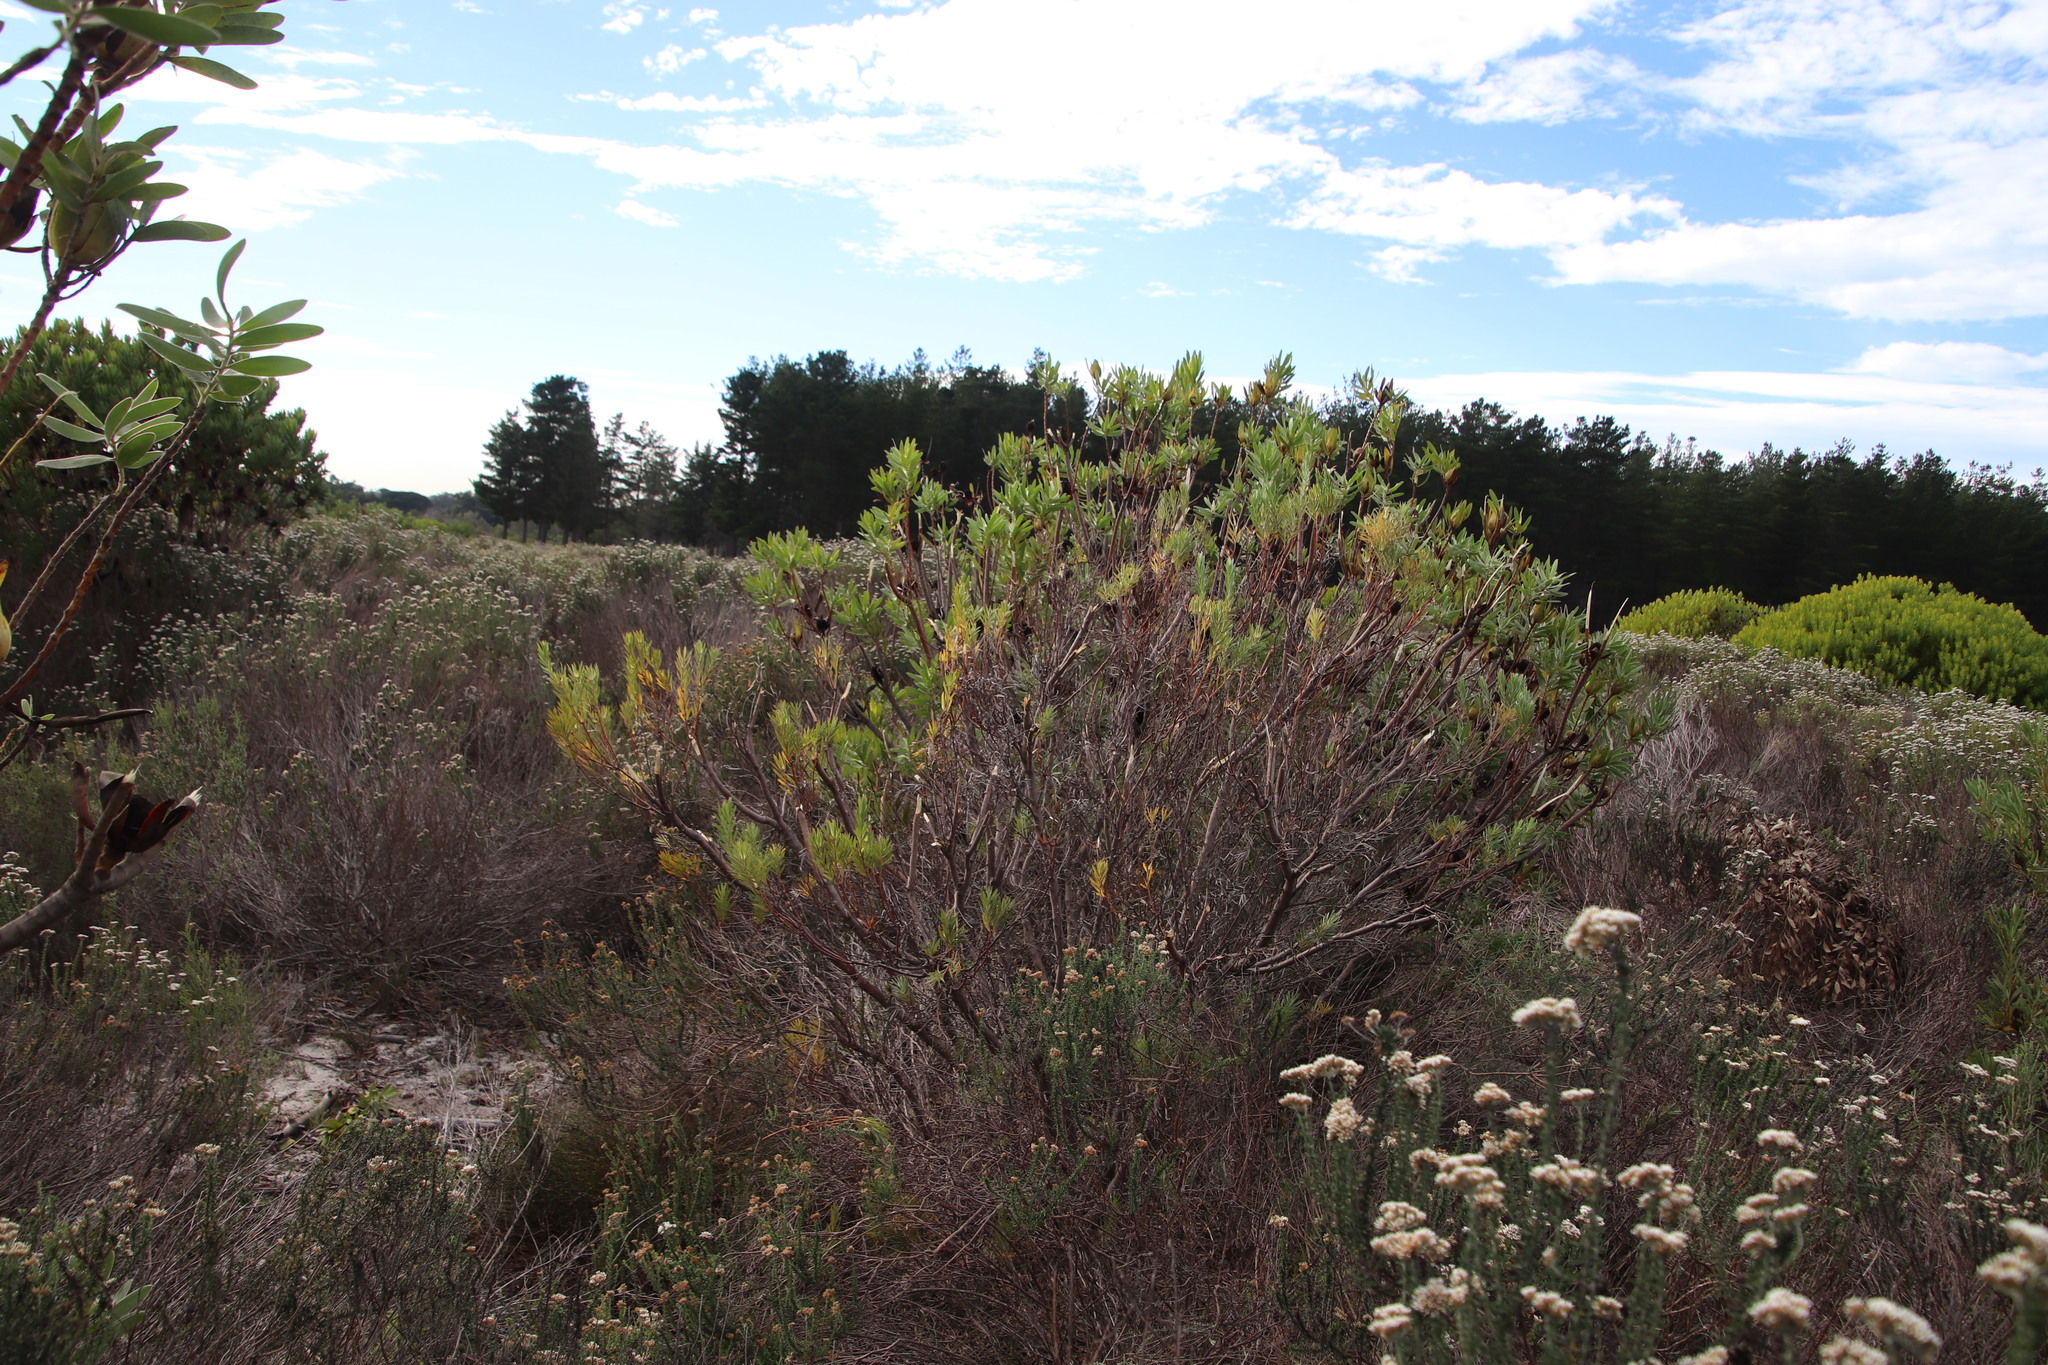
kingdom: Plantae
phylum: Tracheophyta
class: Magnoliopsida
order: Proteales
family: Proteaceae
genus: Leucadendron
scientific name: Leucadendron laureolum
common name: Golden sunshinebush
